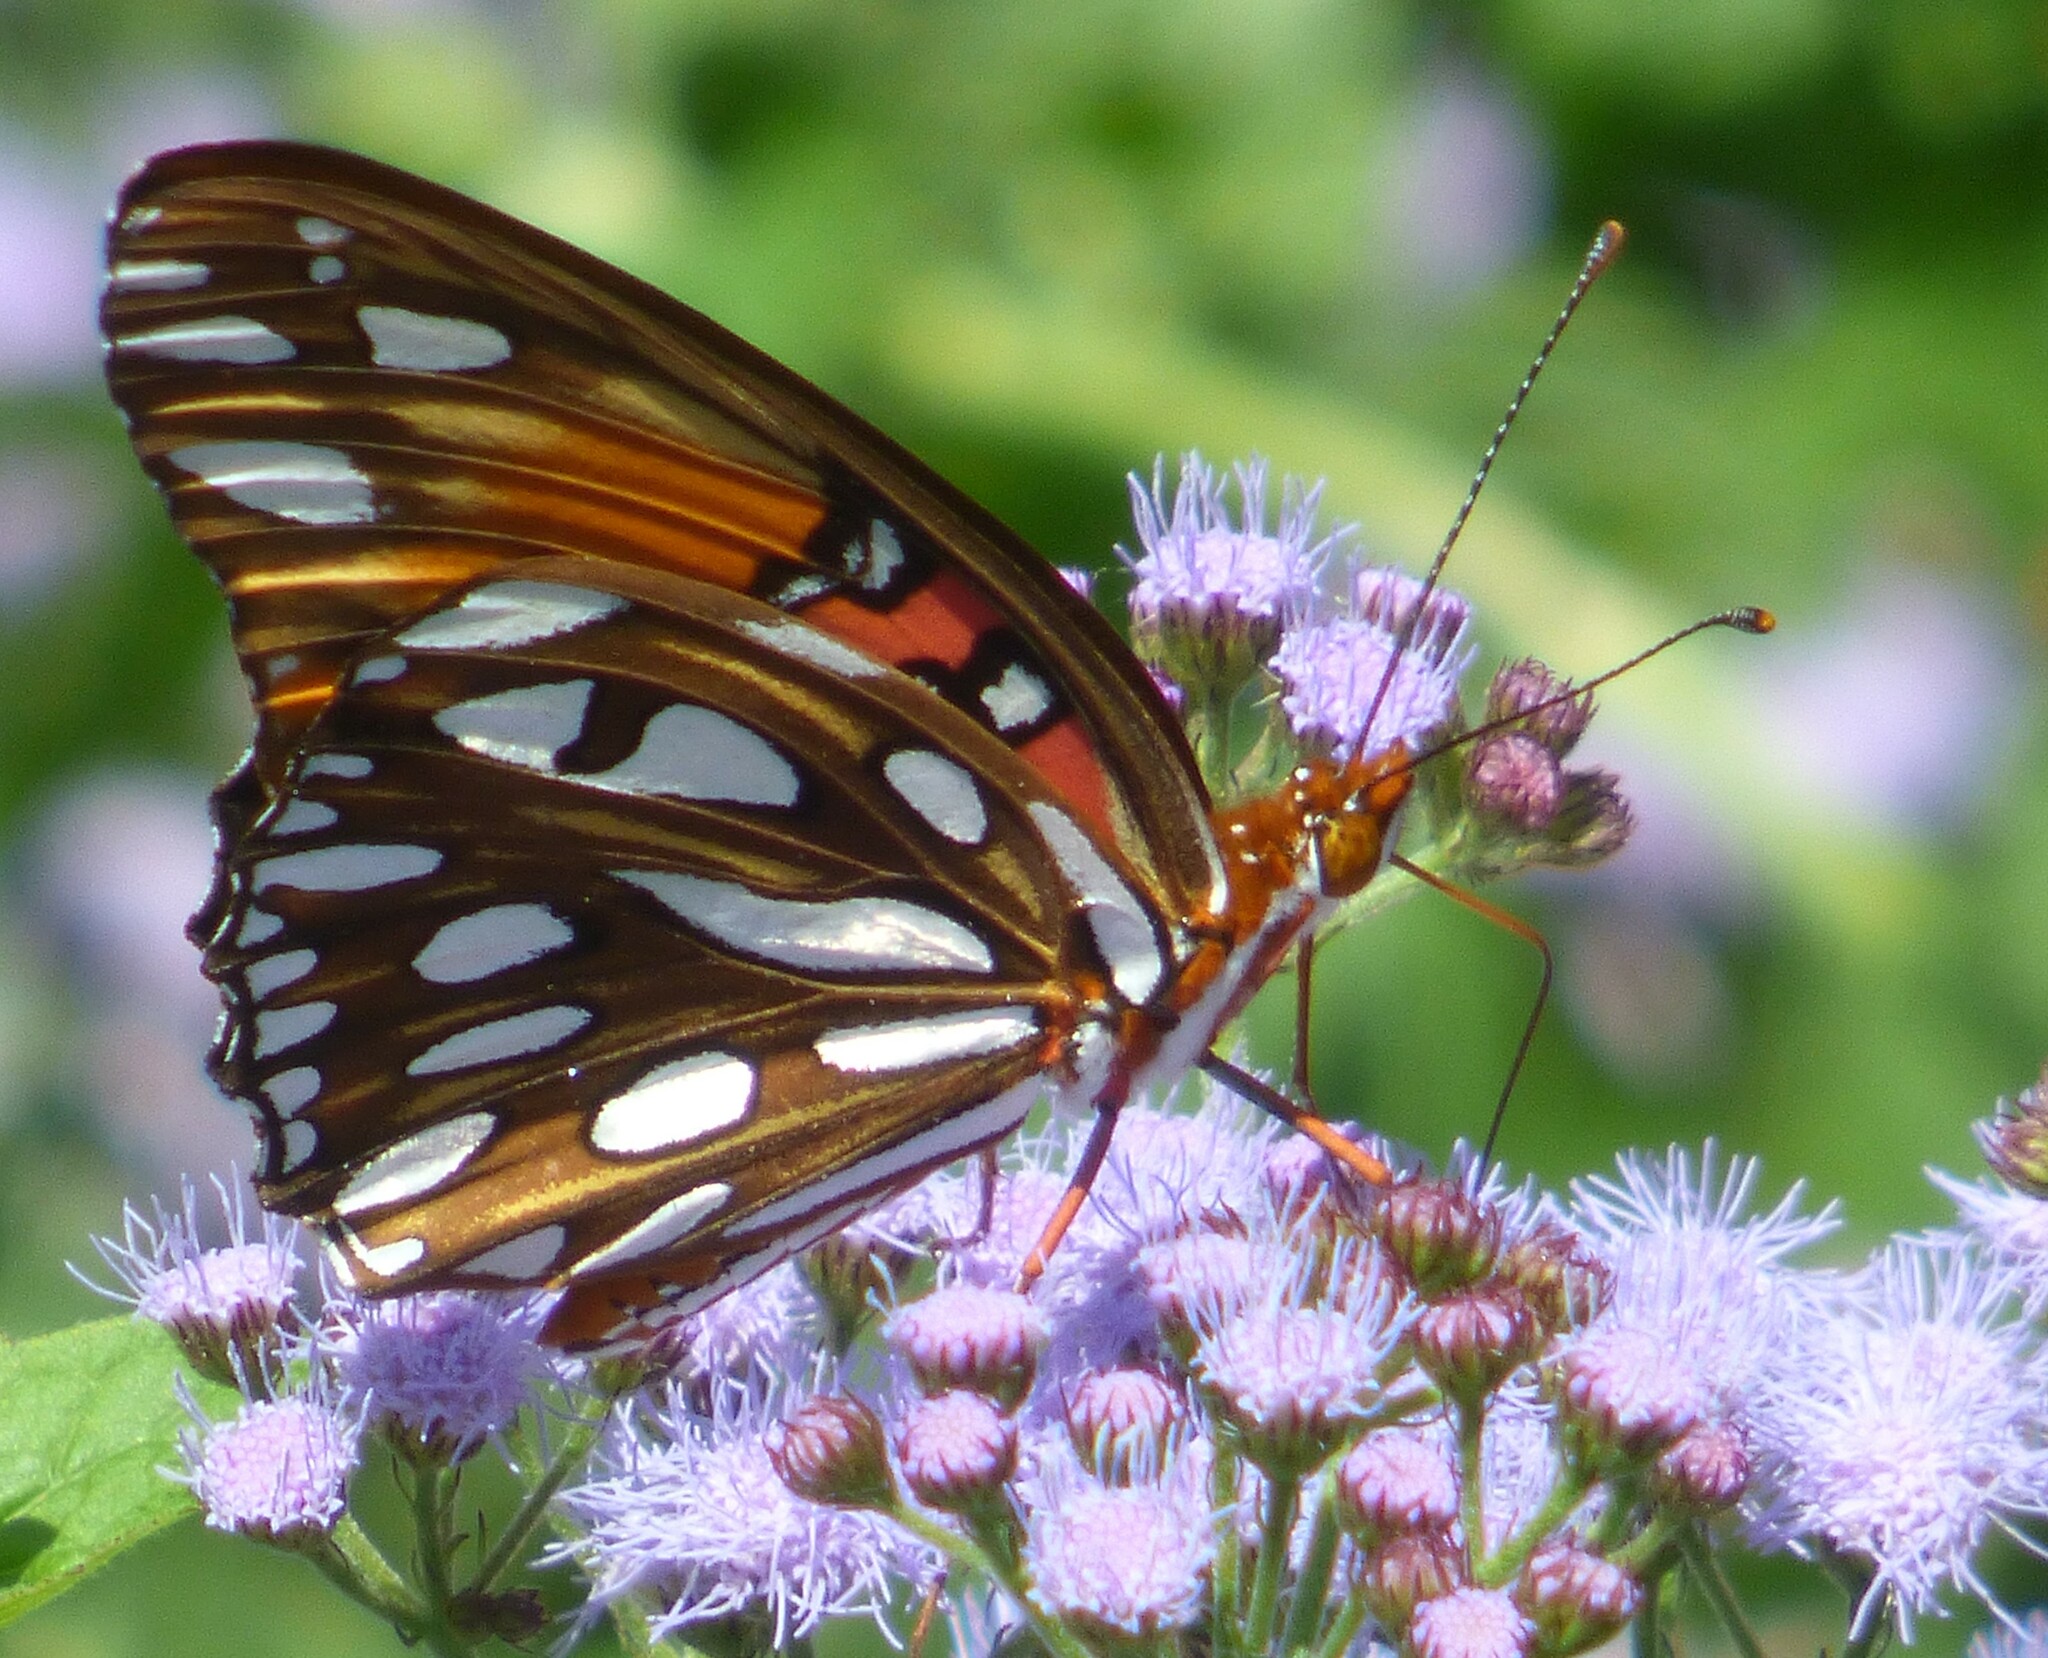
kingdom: Animalia
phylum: Arthropoda
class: Insecta
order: Lepidoptera
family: Nymphalidae
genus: Dione
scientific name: Dione vanillae
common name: Gulf fritillary
